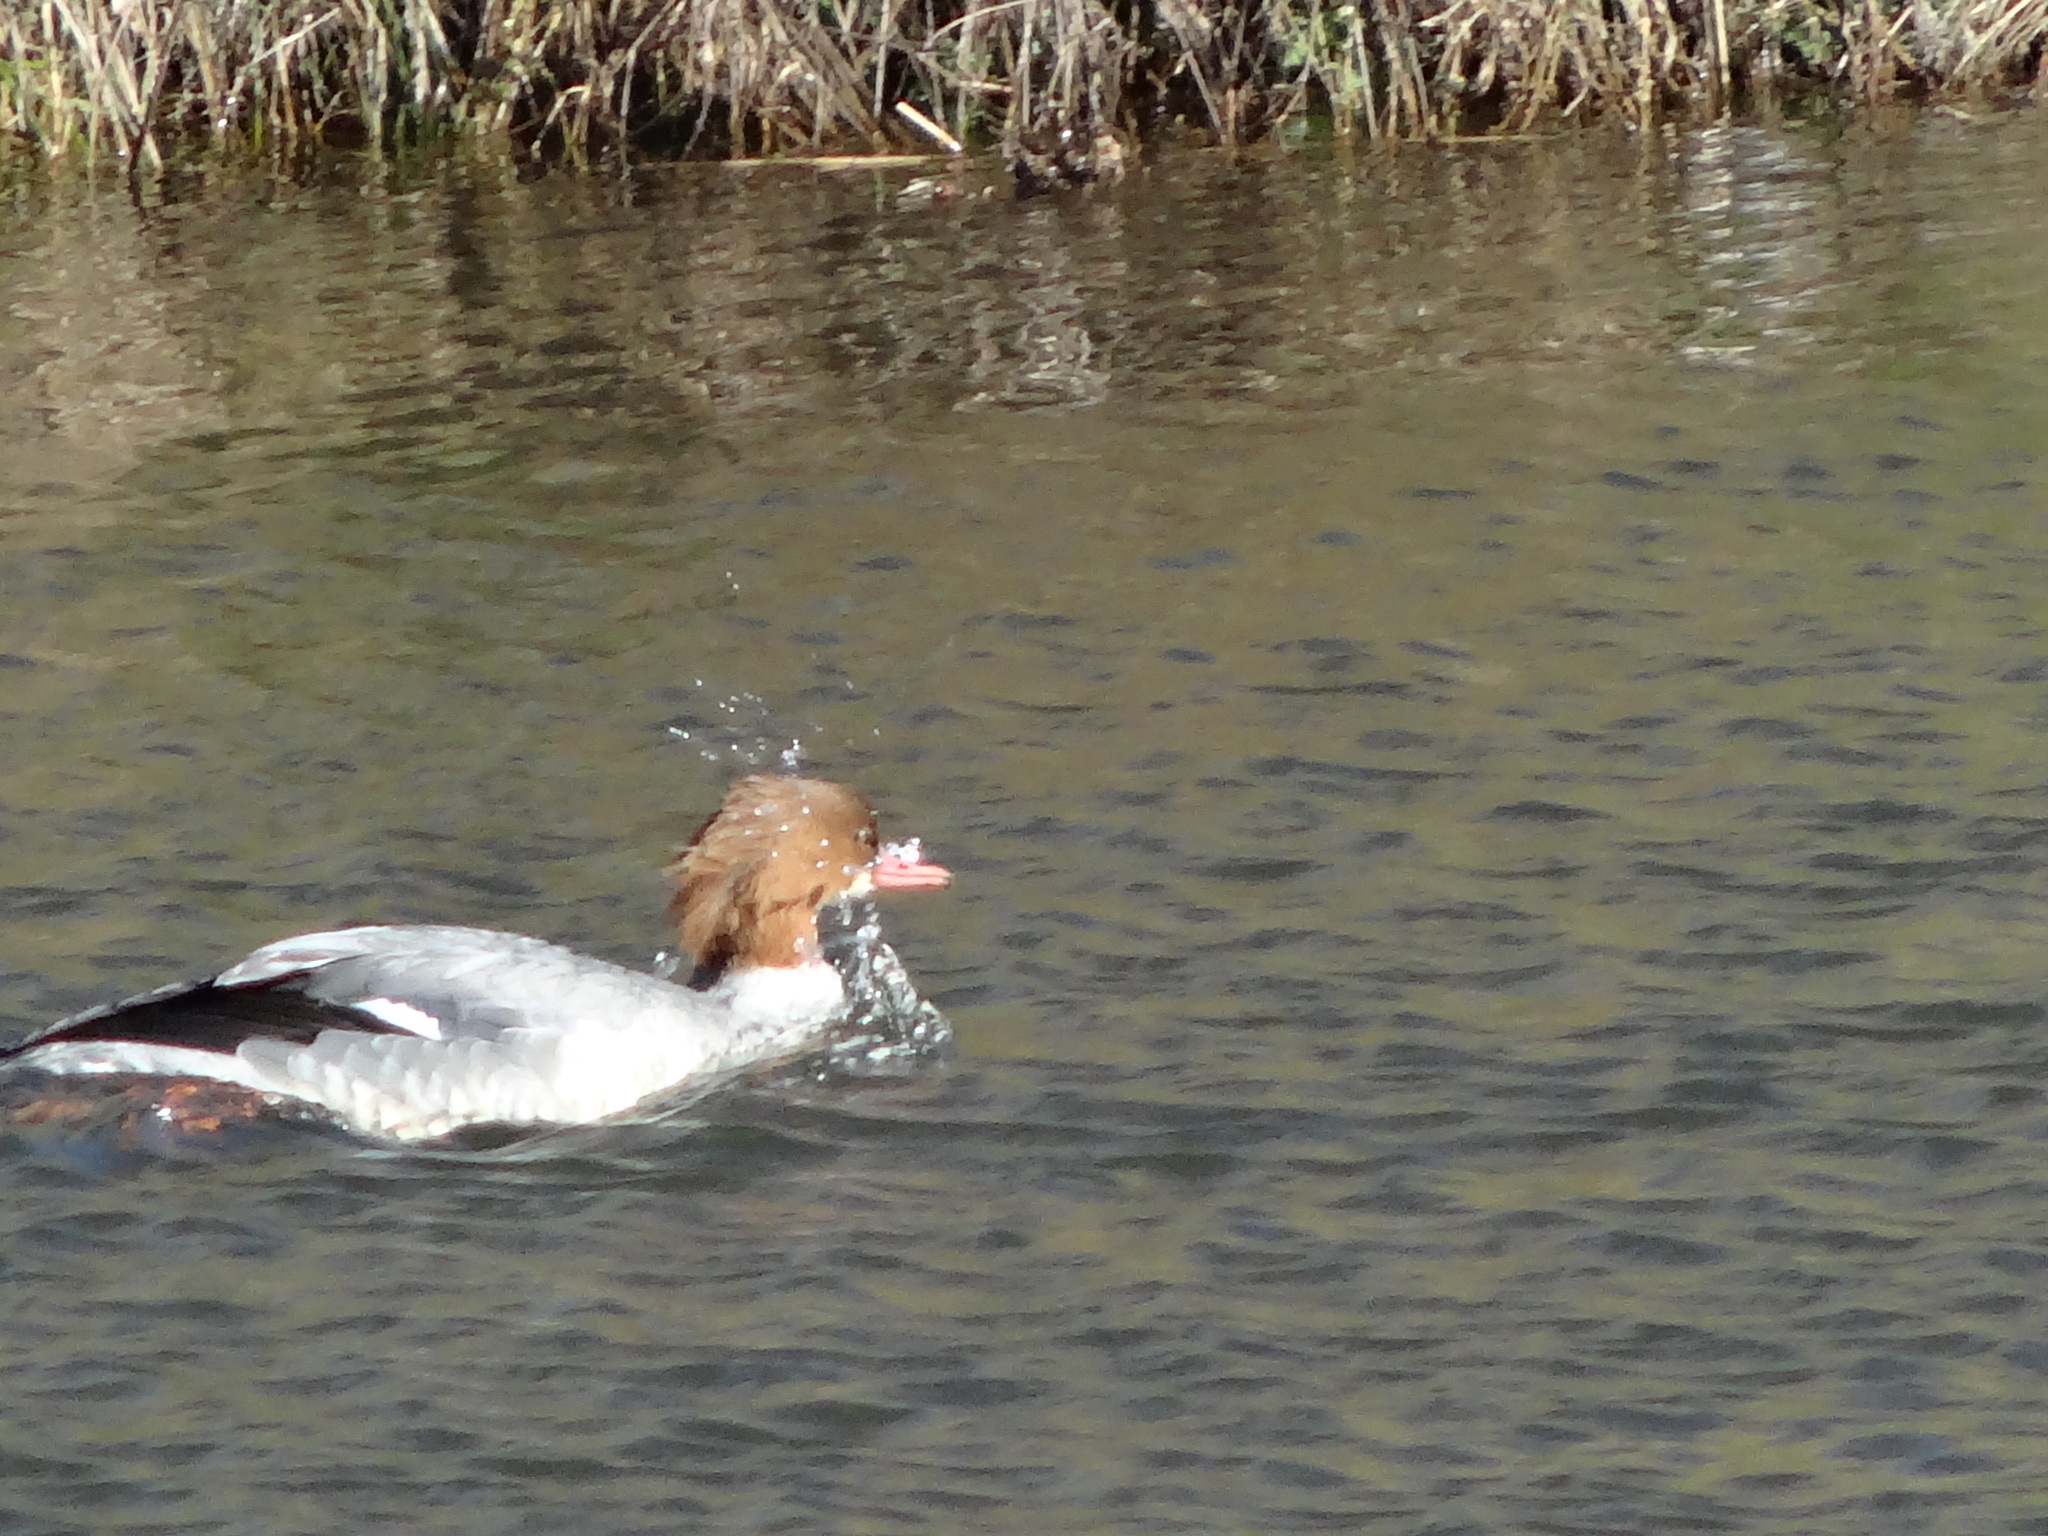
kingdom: Animalia
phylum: Chordata
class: Aves
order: Anseriformes
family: Anatidae
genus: Mergus
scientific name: Mergus merganser
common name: Common merganser
